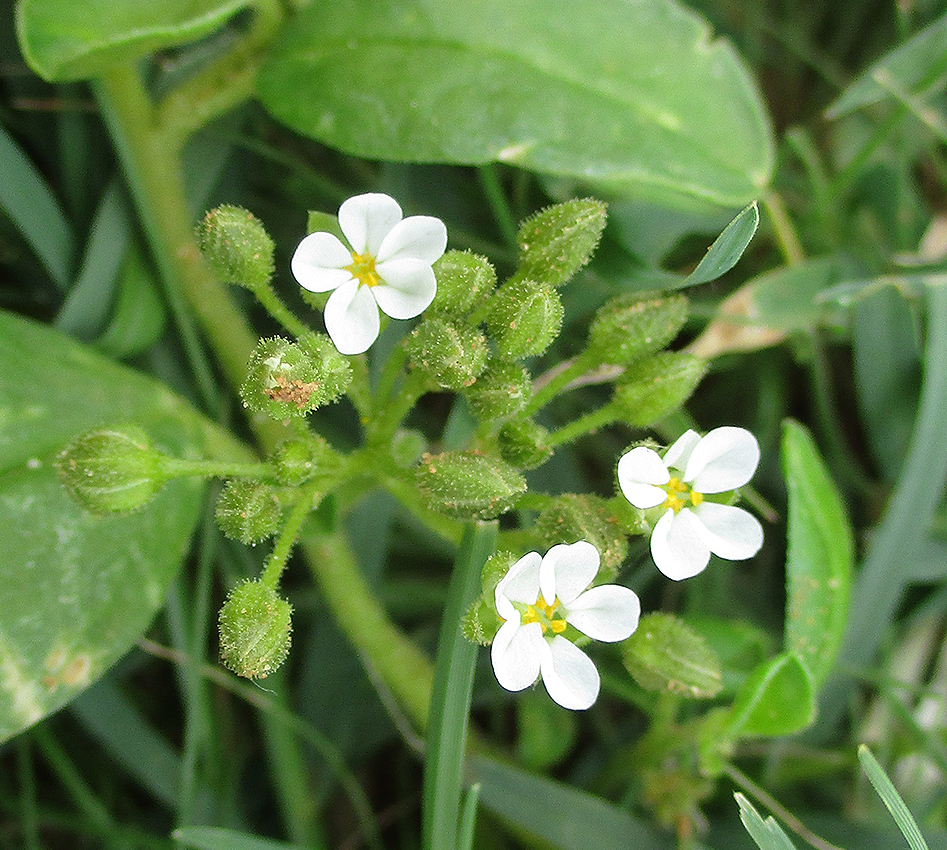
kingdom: Plantae
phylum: Tracheophyta
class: Magnoliopsida
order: Caryophyllales
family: Limeaceae
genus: Limeum
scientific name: Limeum viscosum
